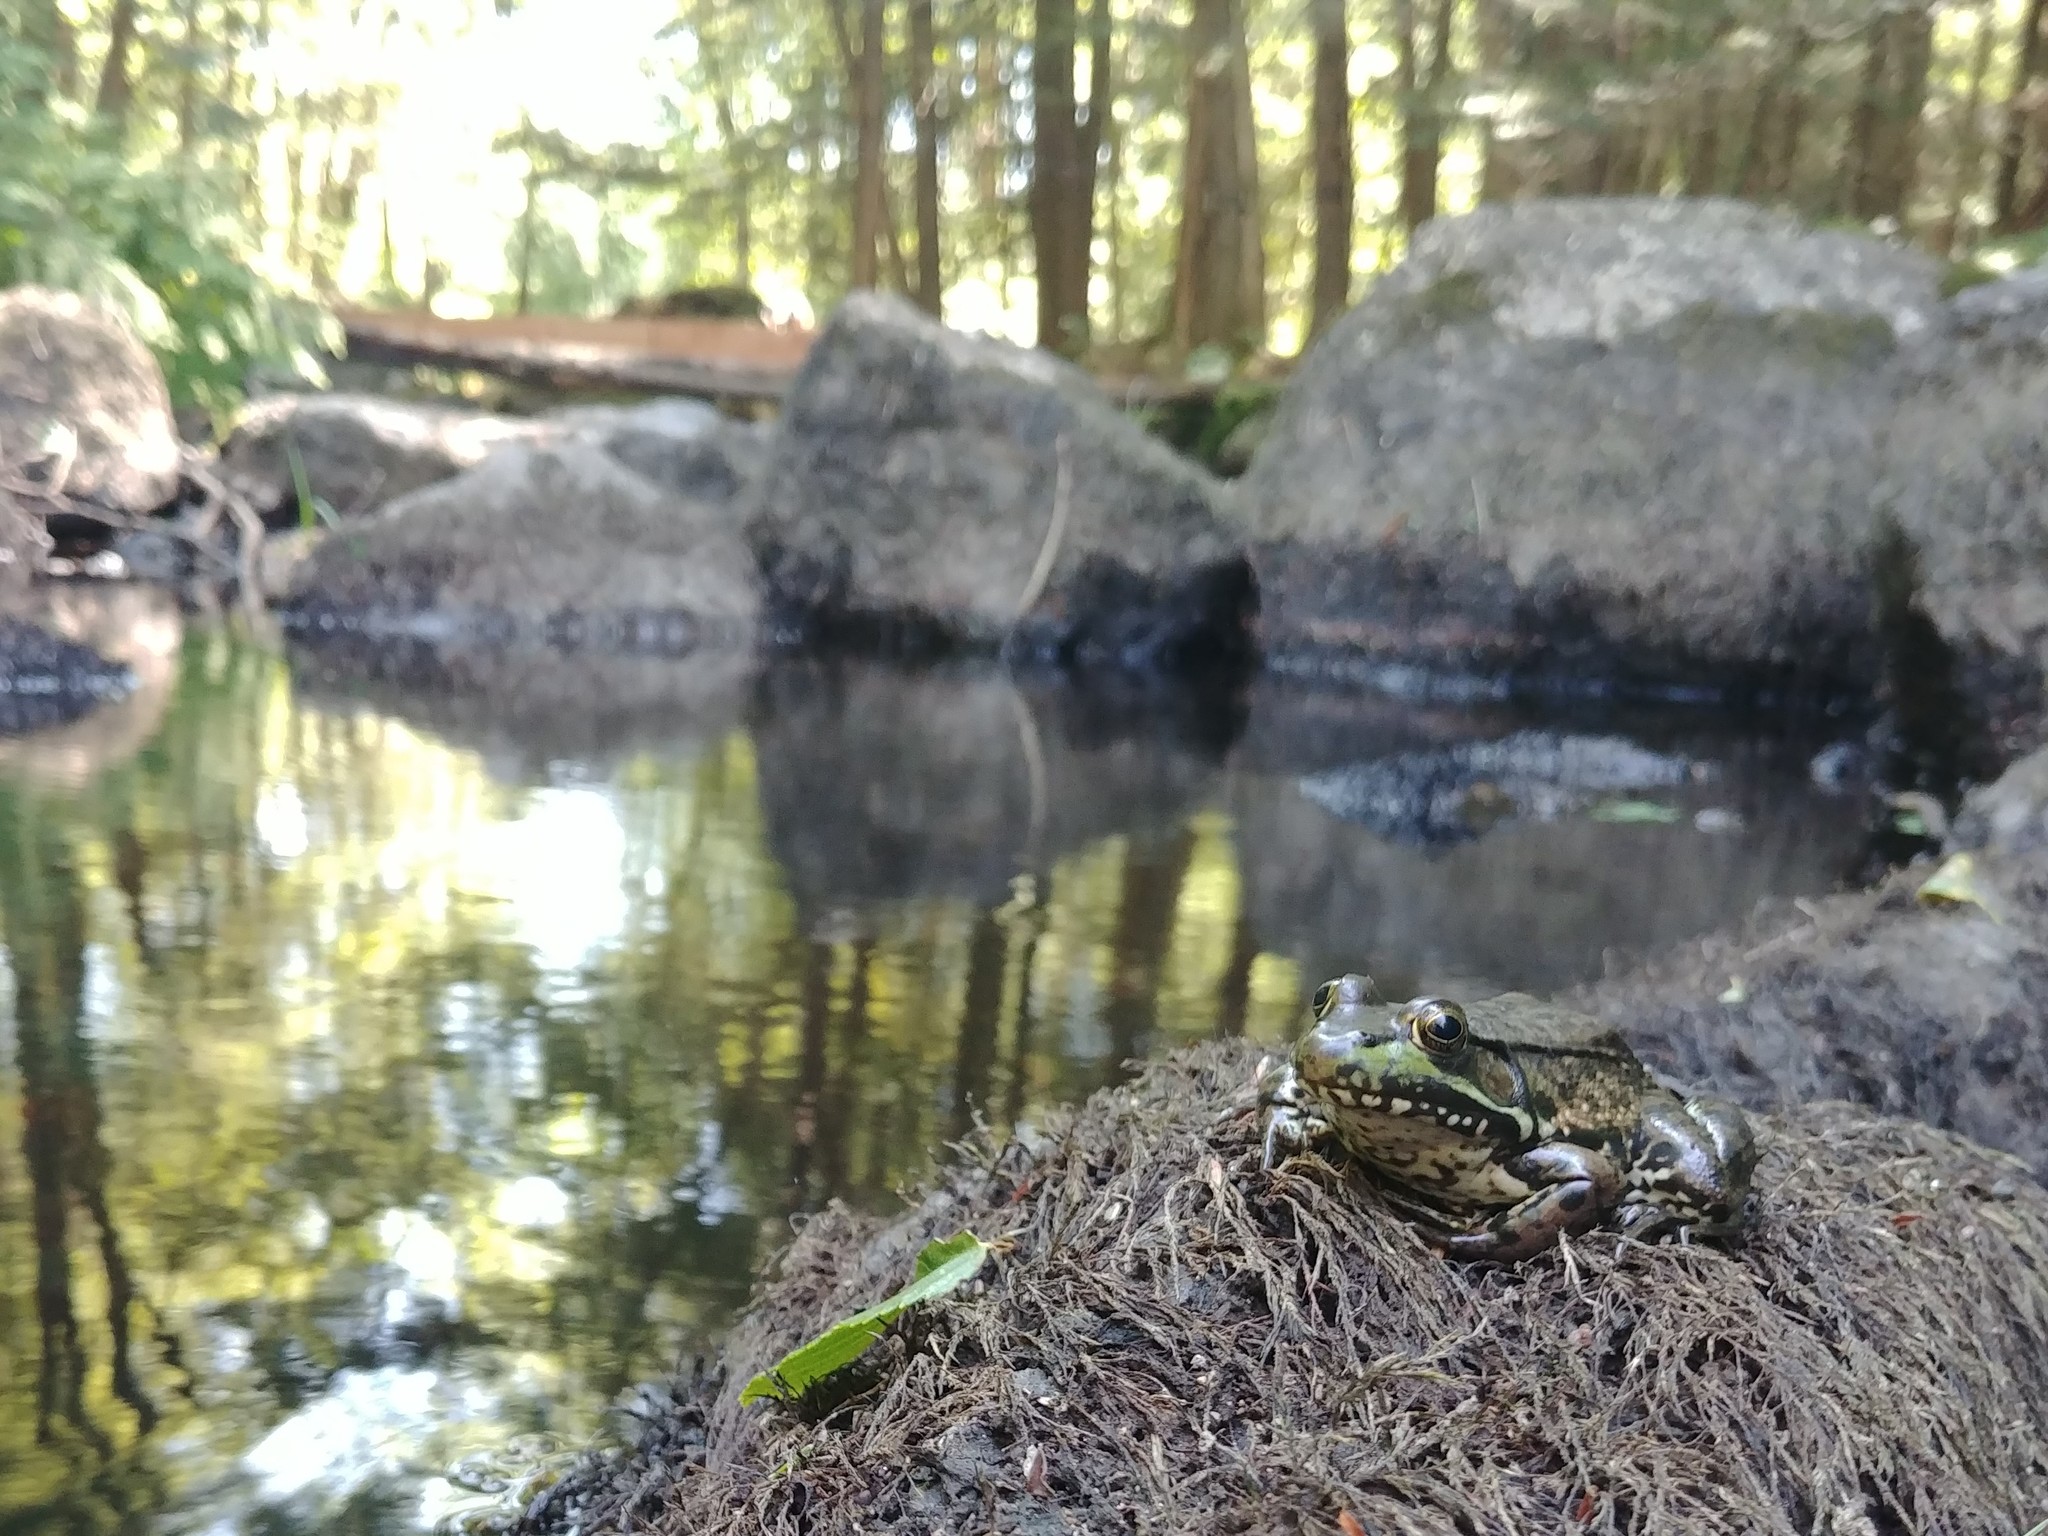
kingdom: Animalia
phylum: Chordata
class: Amphibia
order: Anura
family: Ranidae
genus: Lithobates
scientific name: Lithobates clamitans
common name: Green frog
